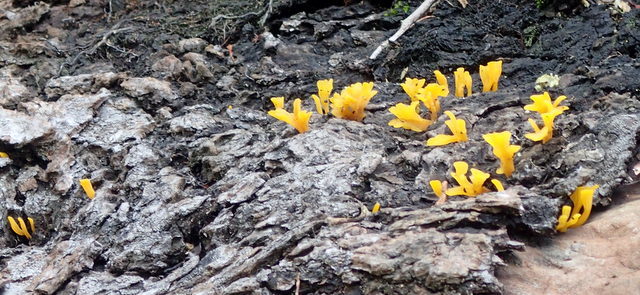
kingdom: Fungi
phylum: Basidiomycota
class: Dacrymycetes
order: Dacrymycetales
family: Dacrymycetaceae
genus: Dacrymyces
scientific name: Dacrymyces spathularius
